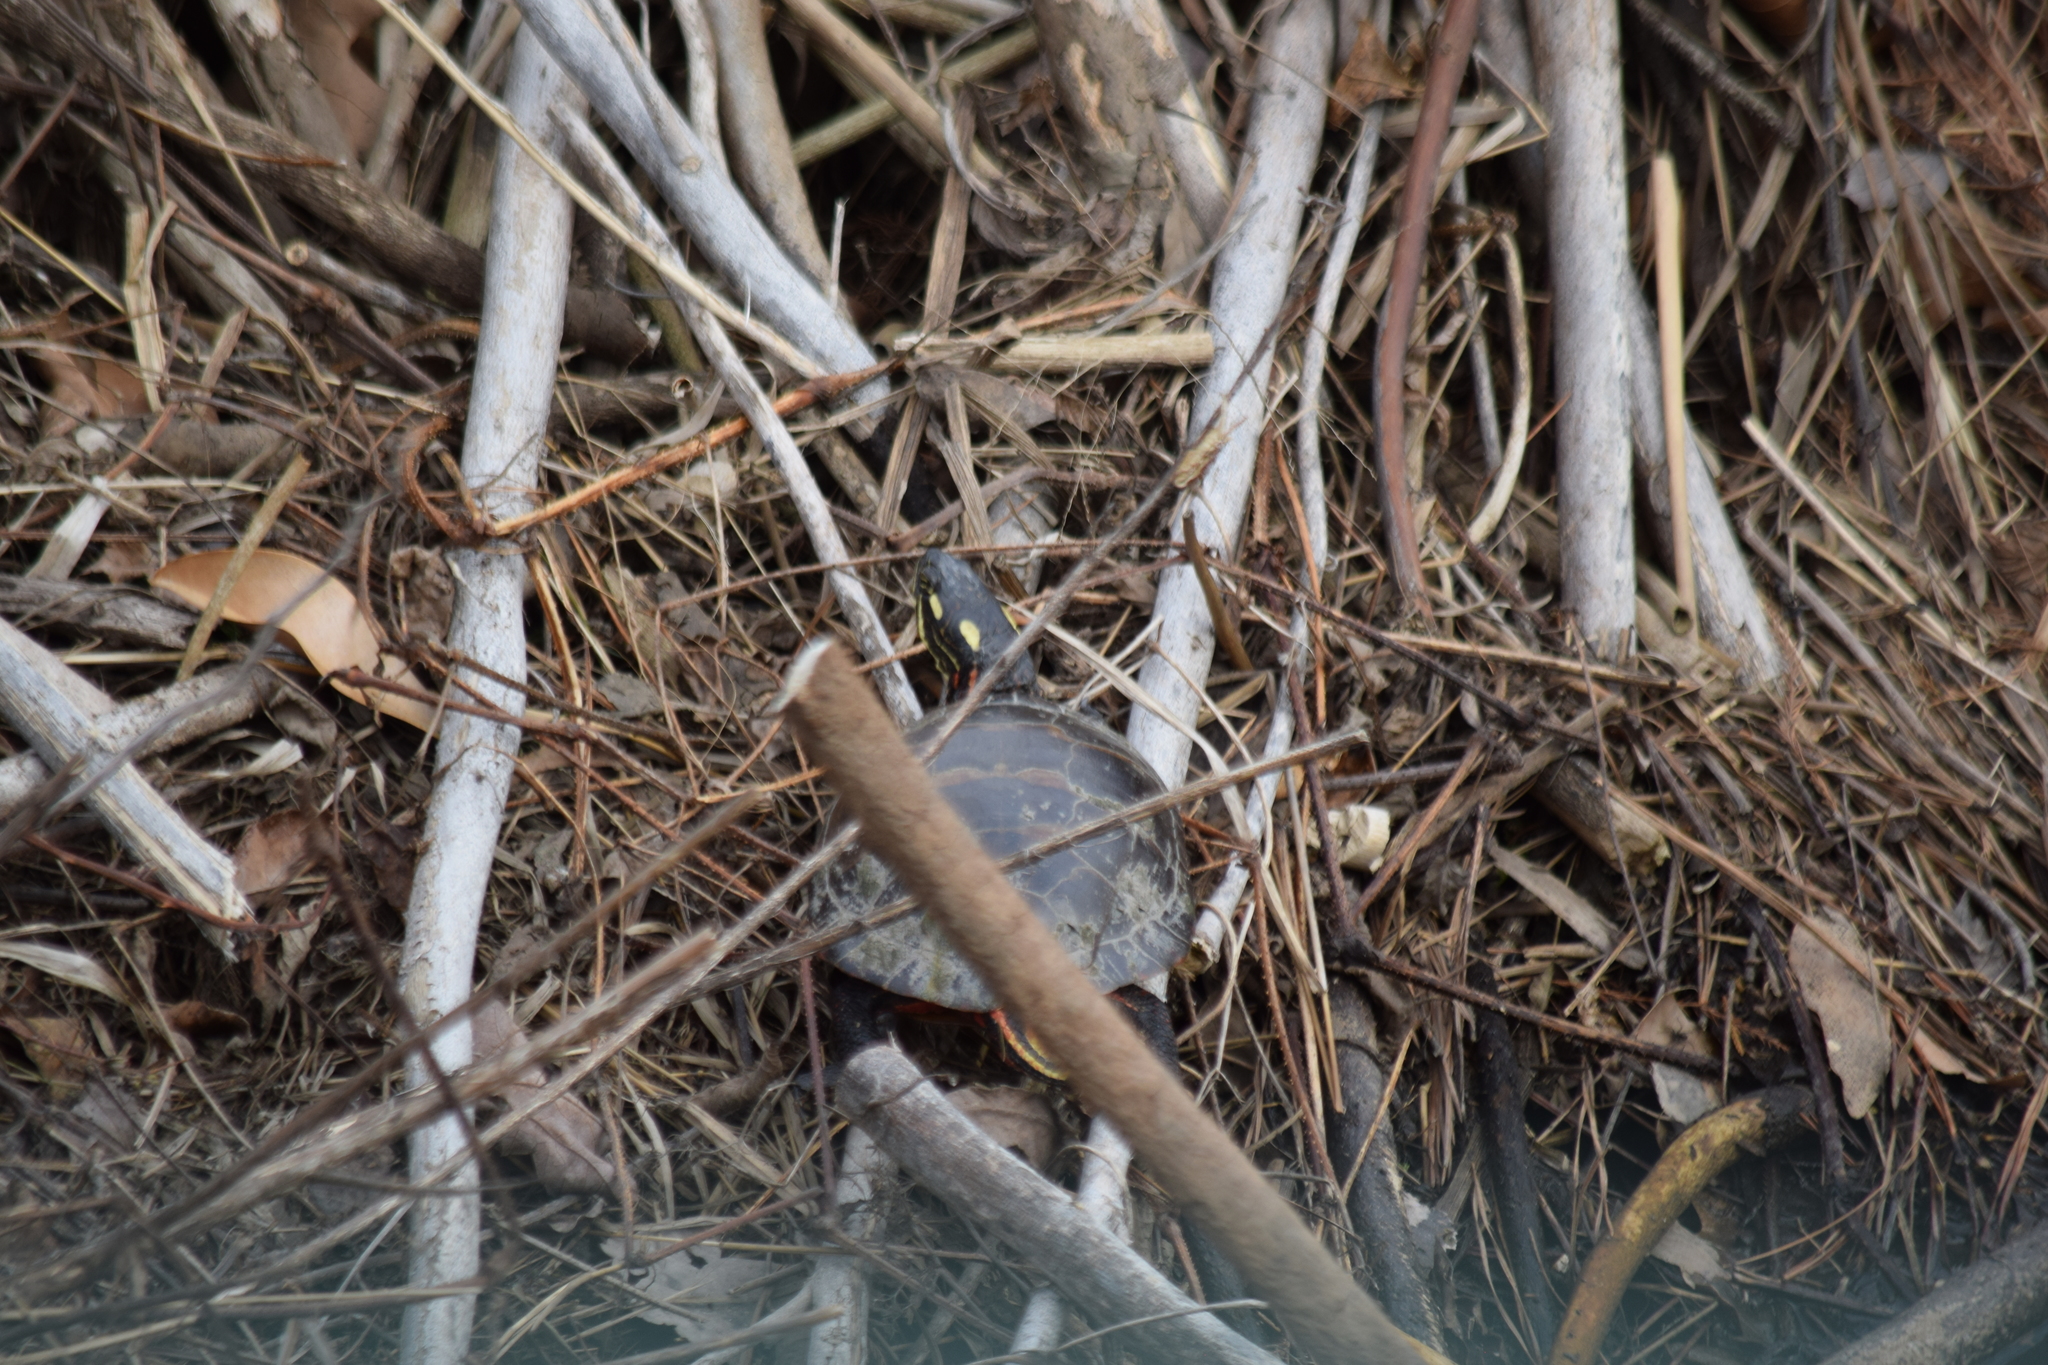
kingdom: Animalia
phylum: Chordata
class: Testudines
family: Emydidae
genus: Chrysemys
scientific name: Chrysemys picta
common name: Painted turtle
